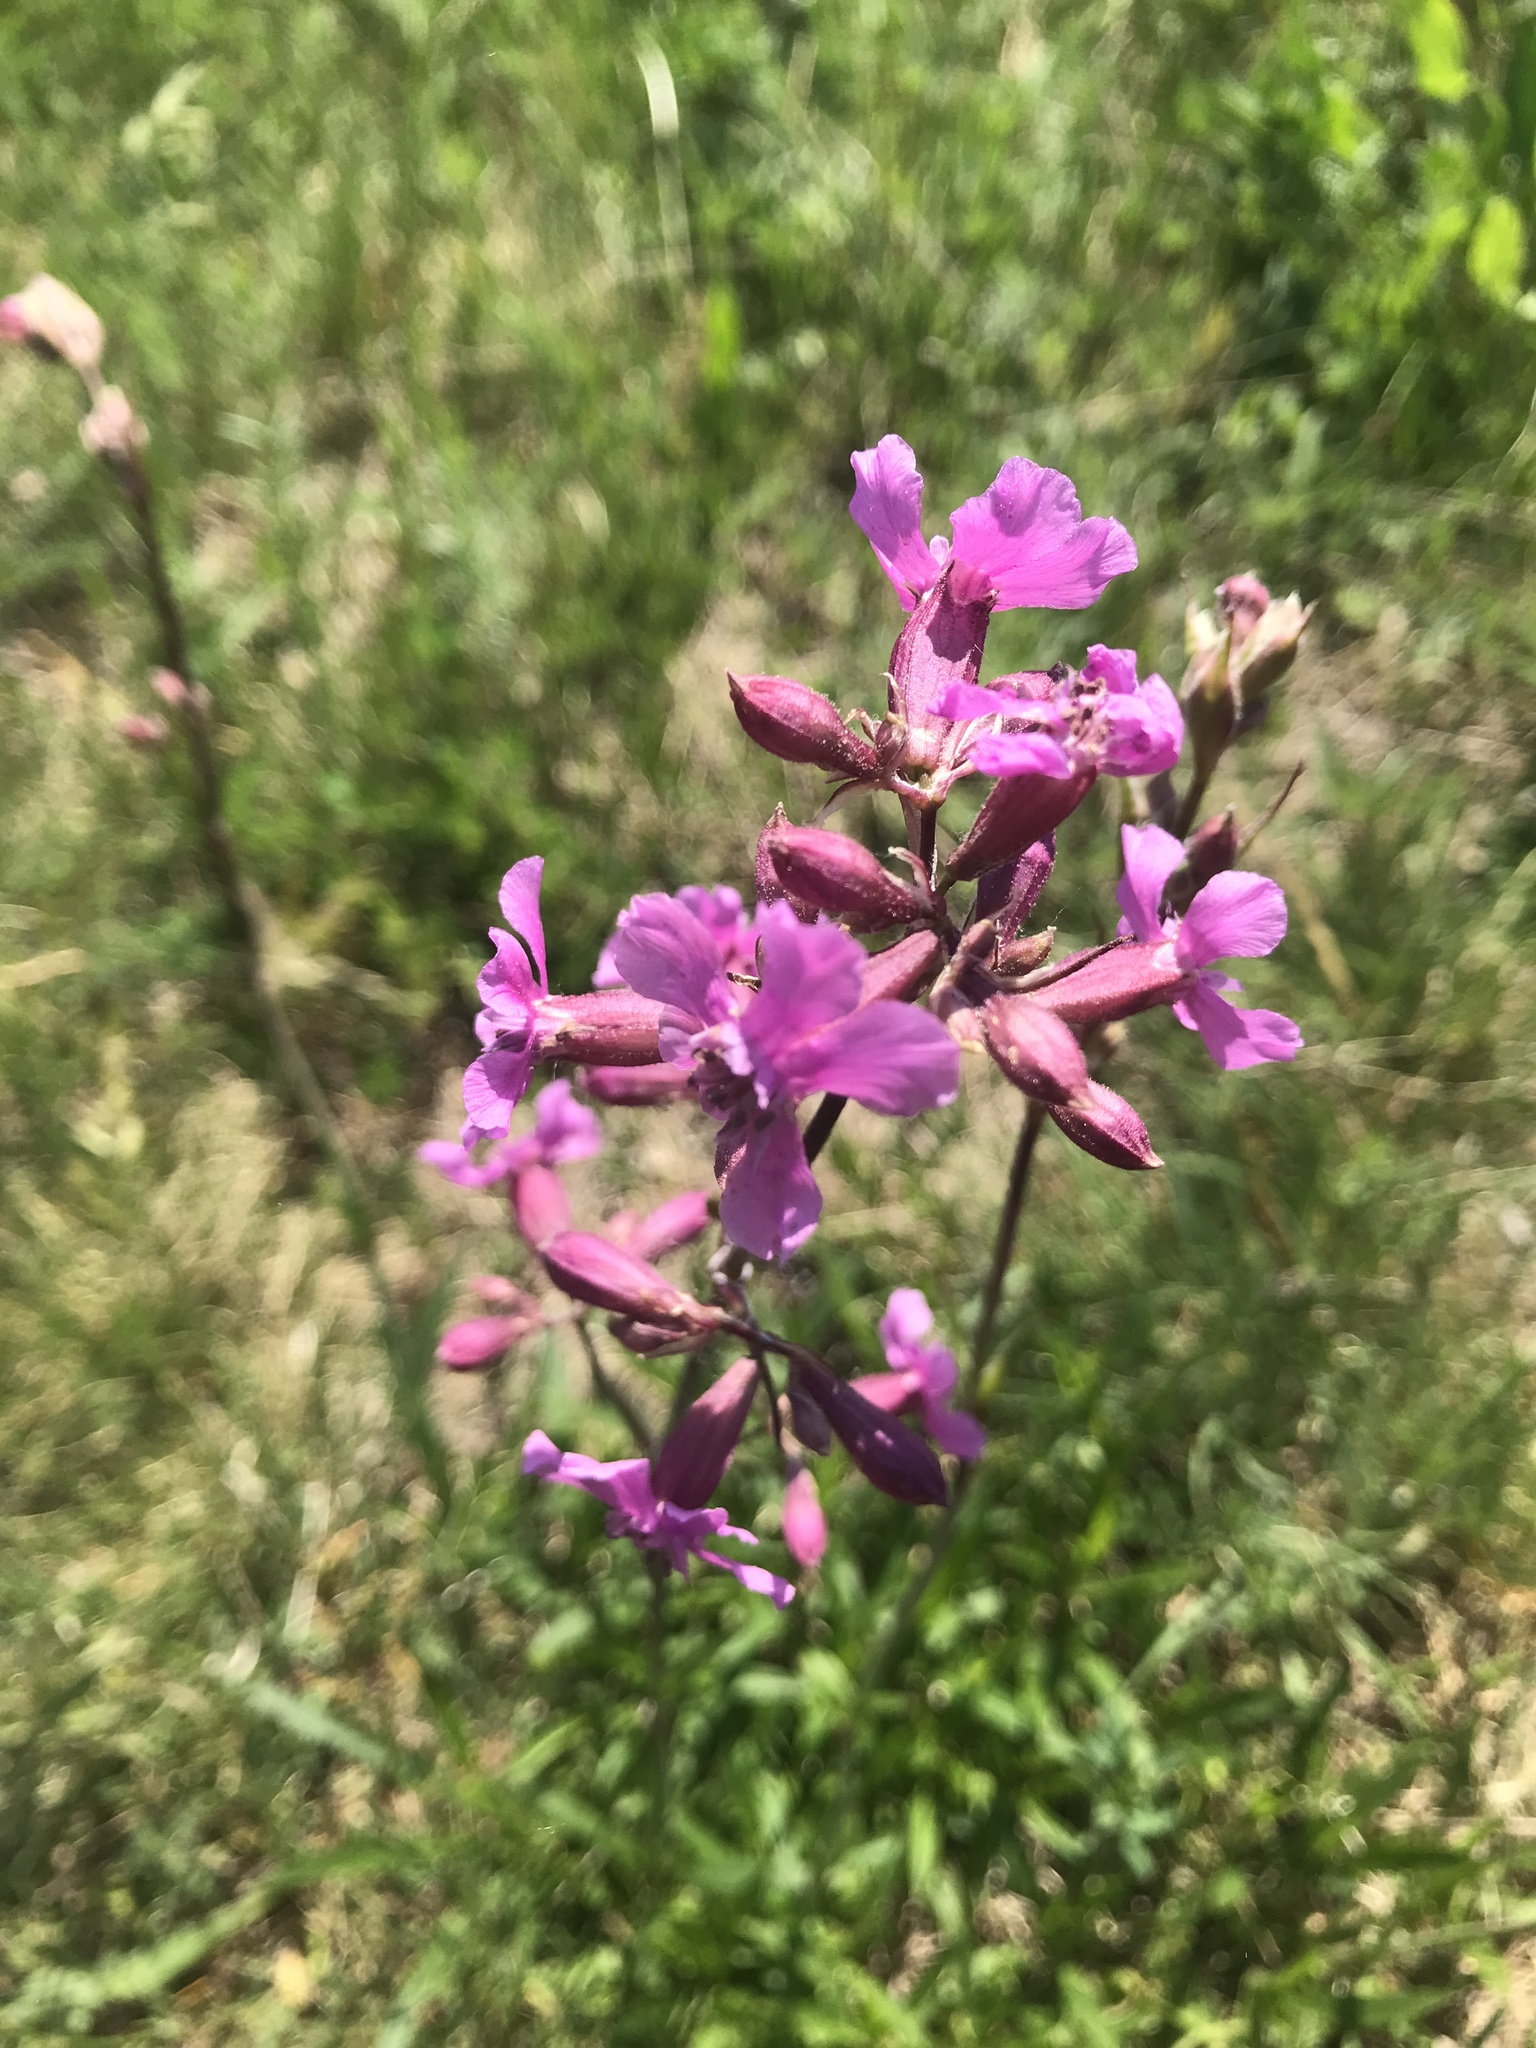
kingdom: Plantae
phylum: Tracheophyta
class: Magnoliopsida
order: Caryophyllales
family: Caryophyllaceae
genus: Viscaria
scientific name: Viscaria vulgaris
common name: Clammy campion
